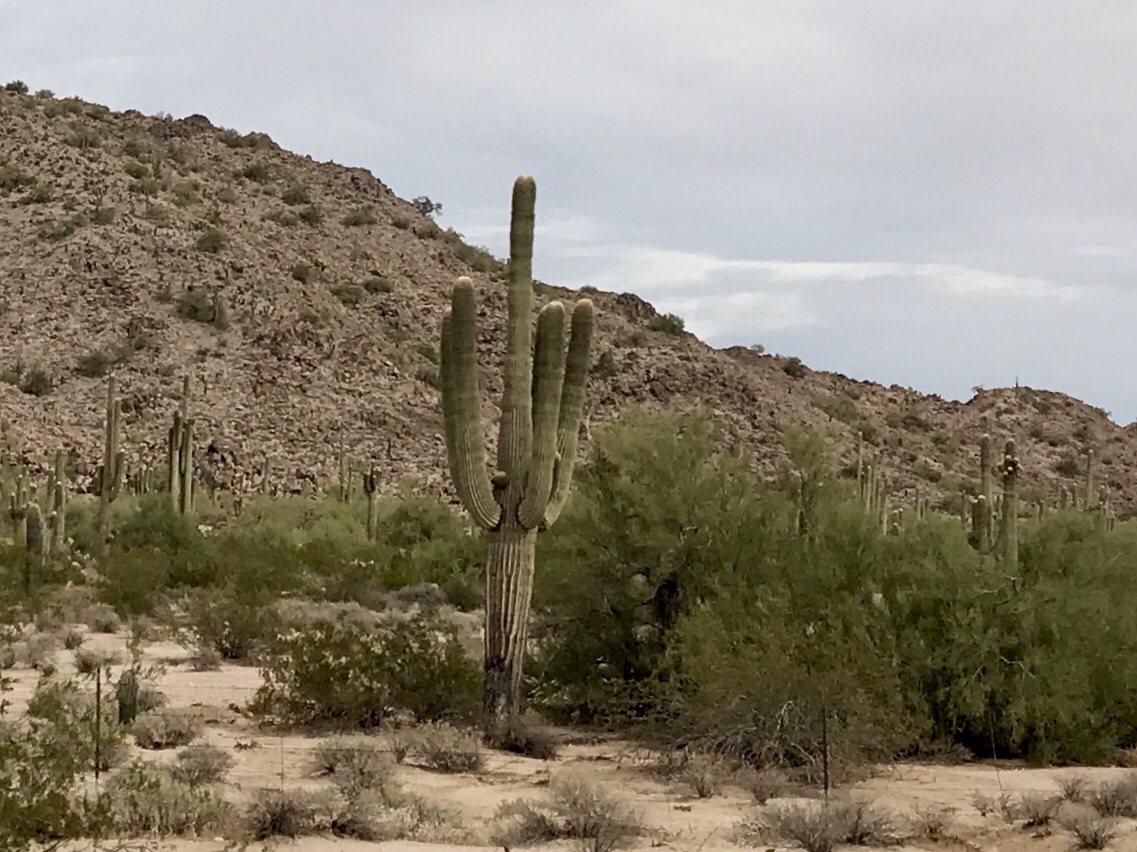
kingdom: Plantae
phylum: Tracheophyta
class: Magnoliopsida
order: Caryophyllales
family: Cactaceae
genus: Carnegiea
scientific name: Carnegiea gigantea
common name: Saguaro
